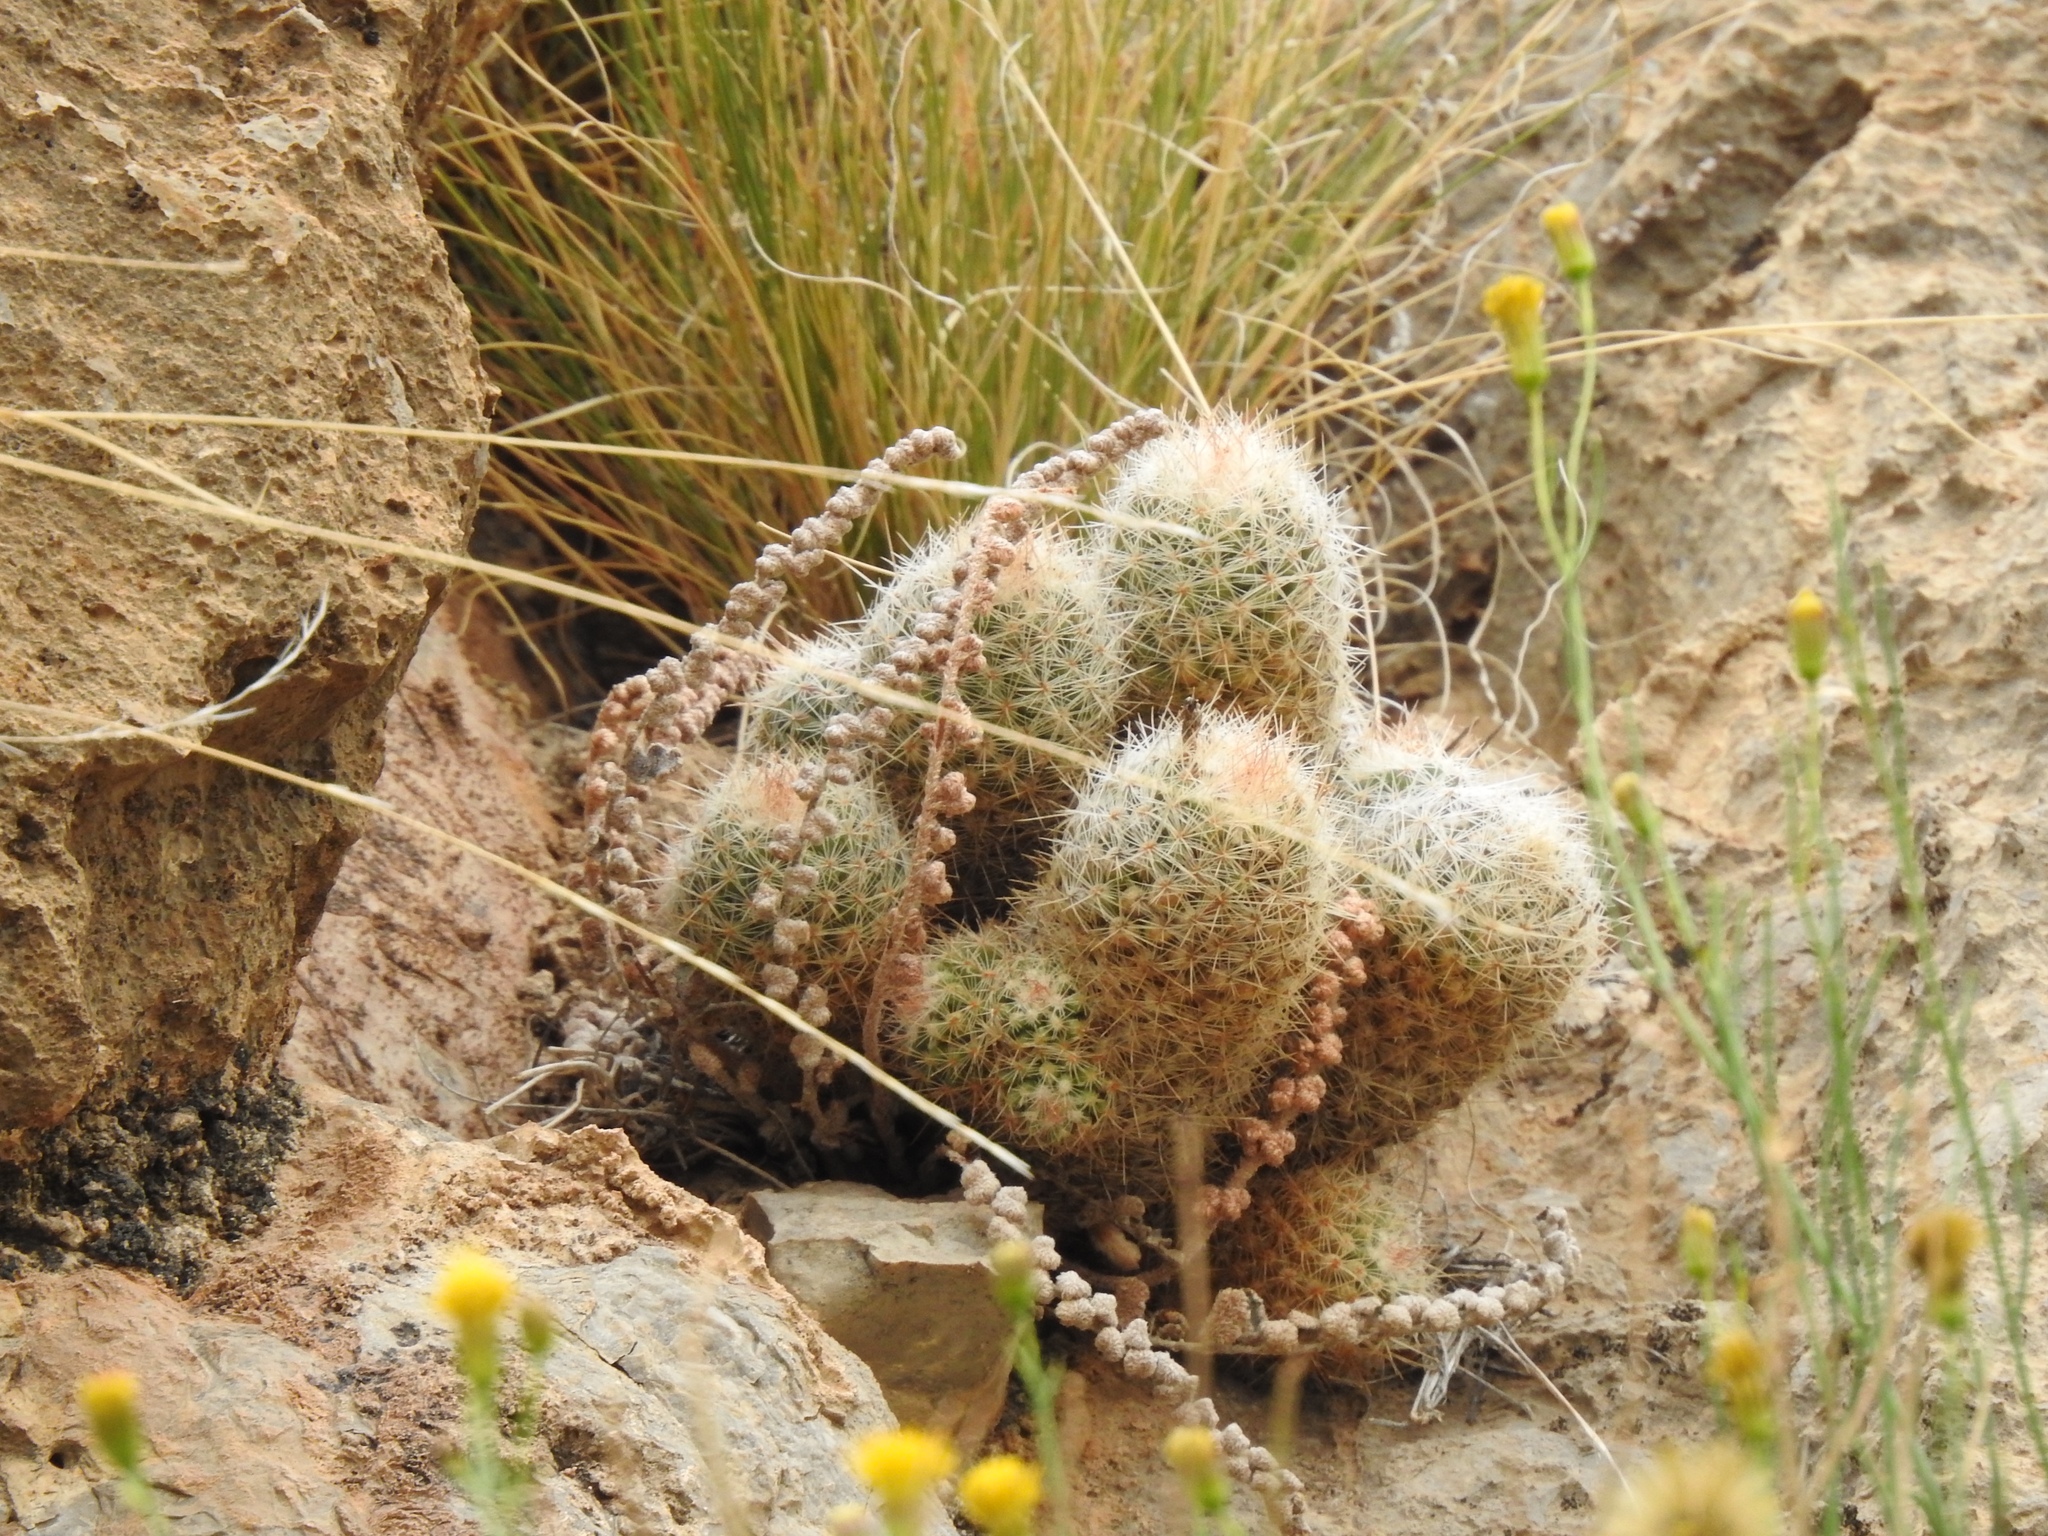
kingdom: Plantae
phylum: Tracheophyta
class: Magnoliopsida
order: Caryophyllales
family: Cactaceae
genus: Pelecyphora
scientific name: Pelecyphora tuberculosa
